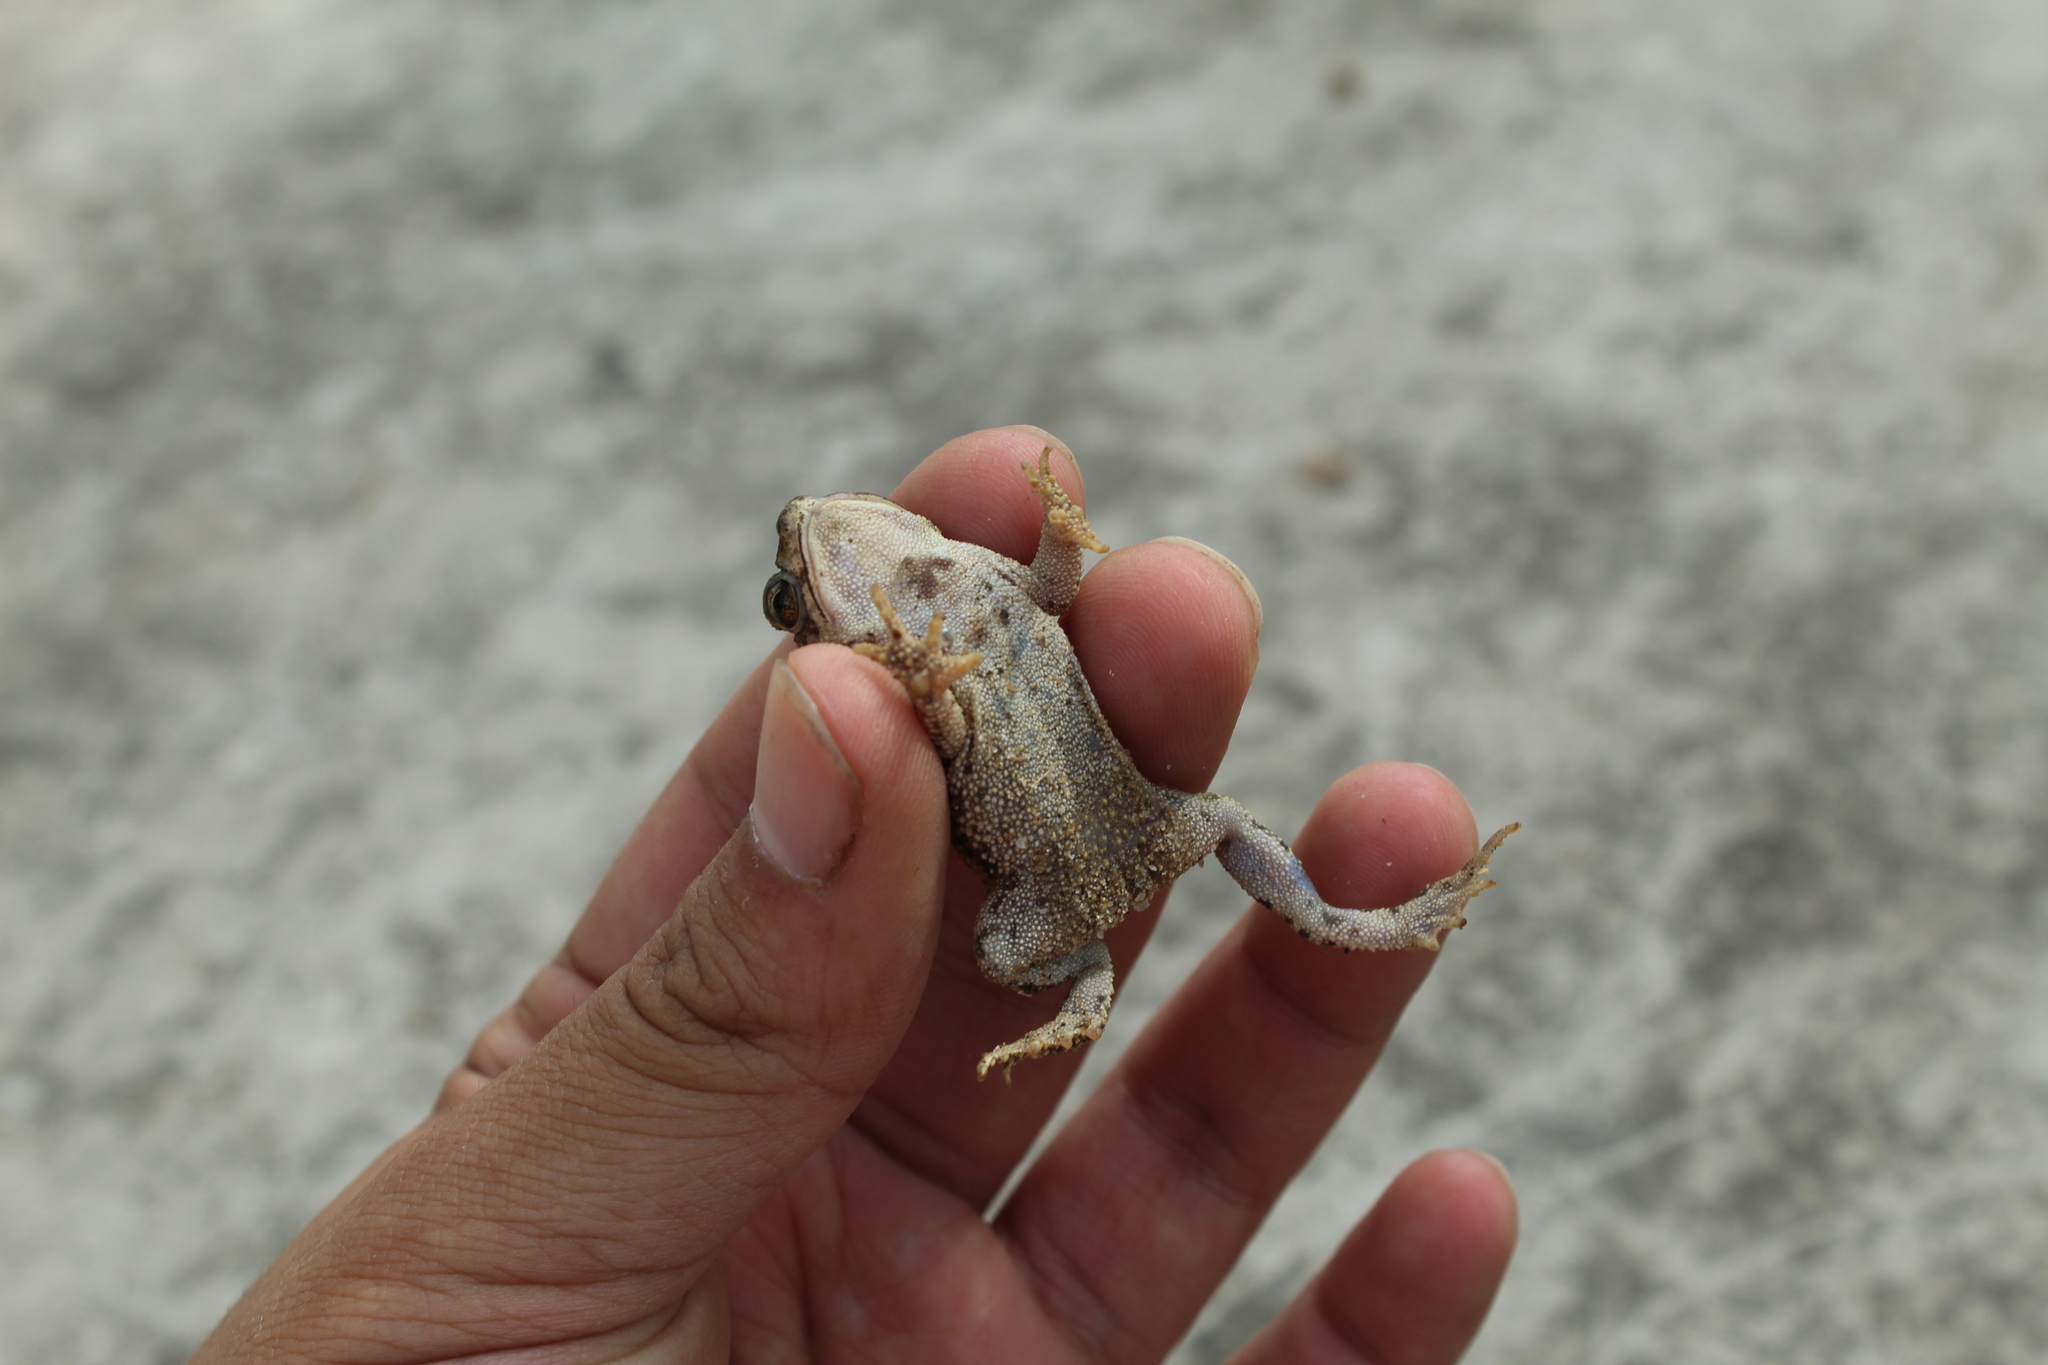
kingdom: Animalia
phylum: Chordata
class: Amphibia
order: Anura
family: Bufonidae
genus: Rhinella
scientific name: Rhinella beebei
